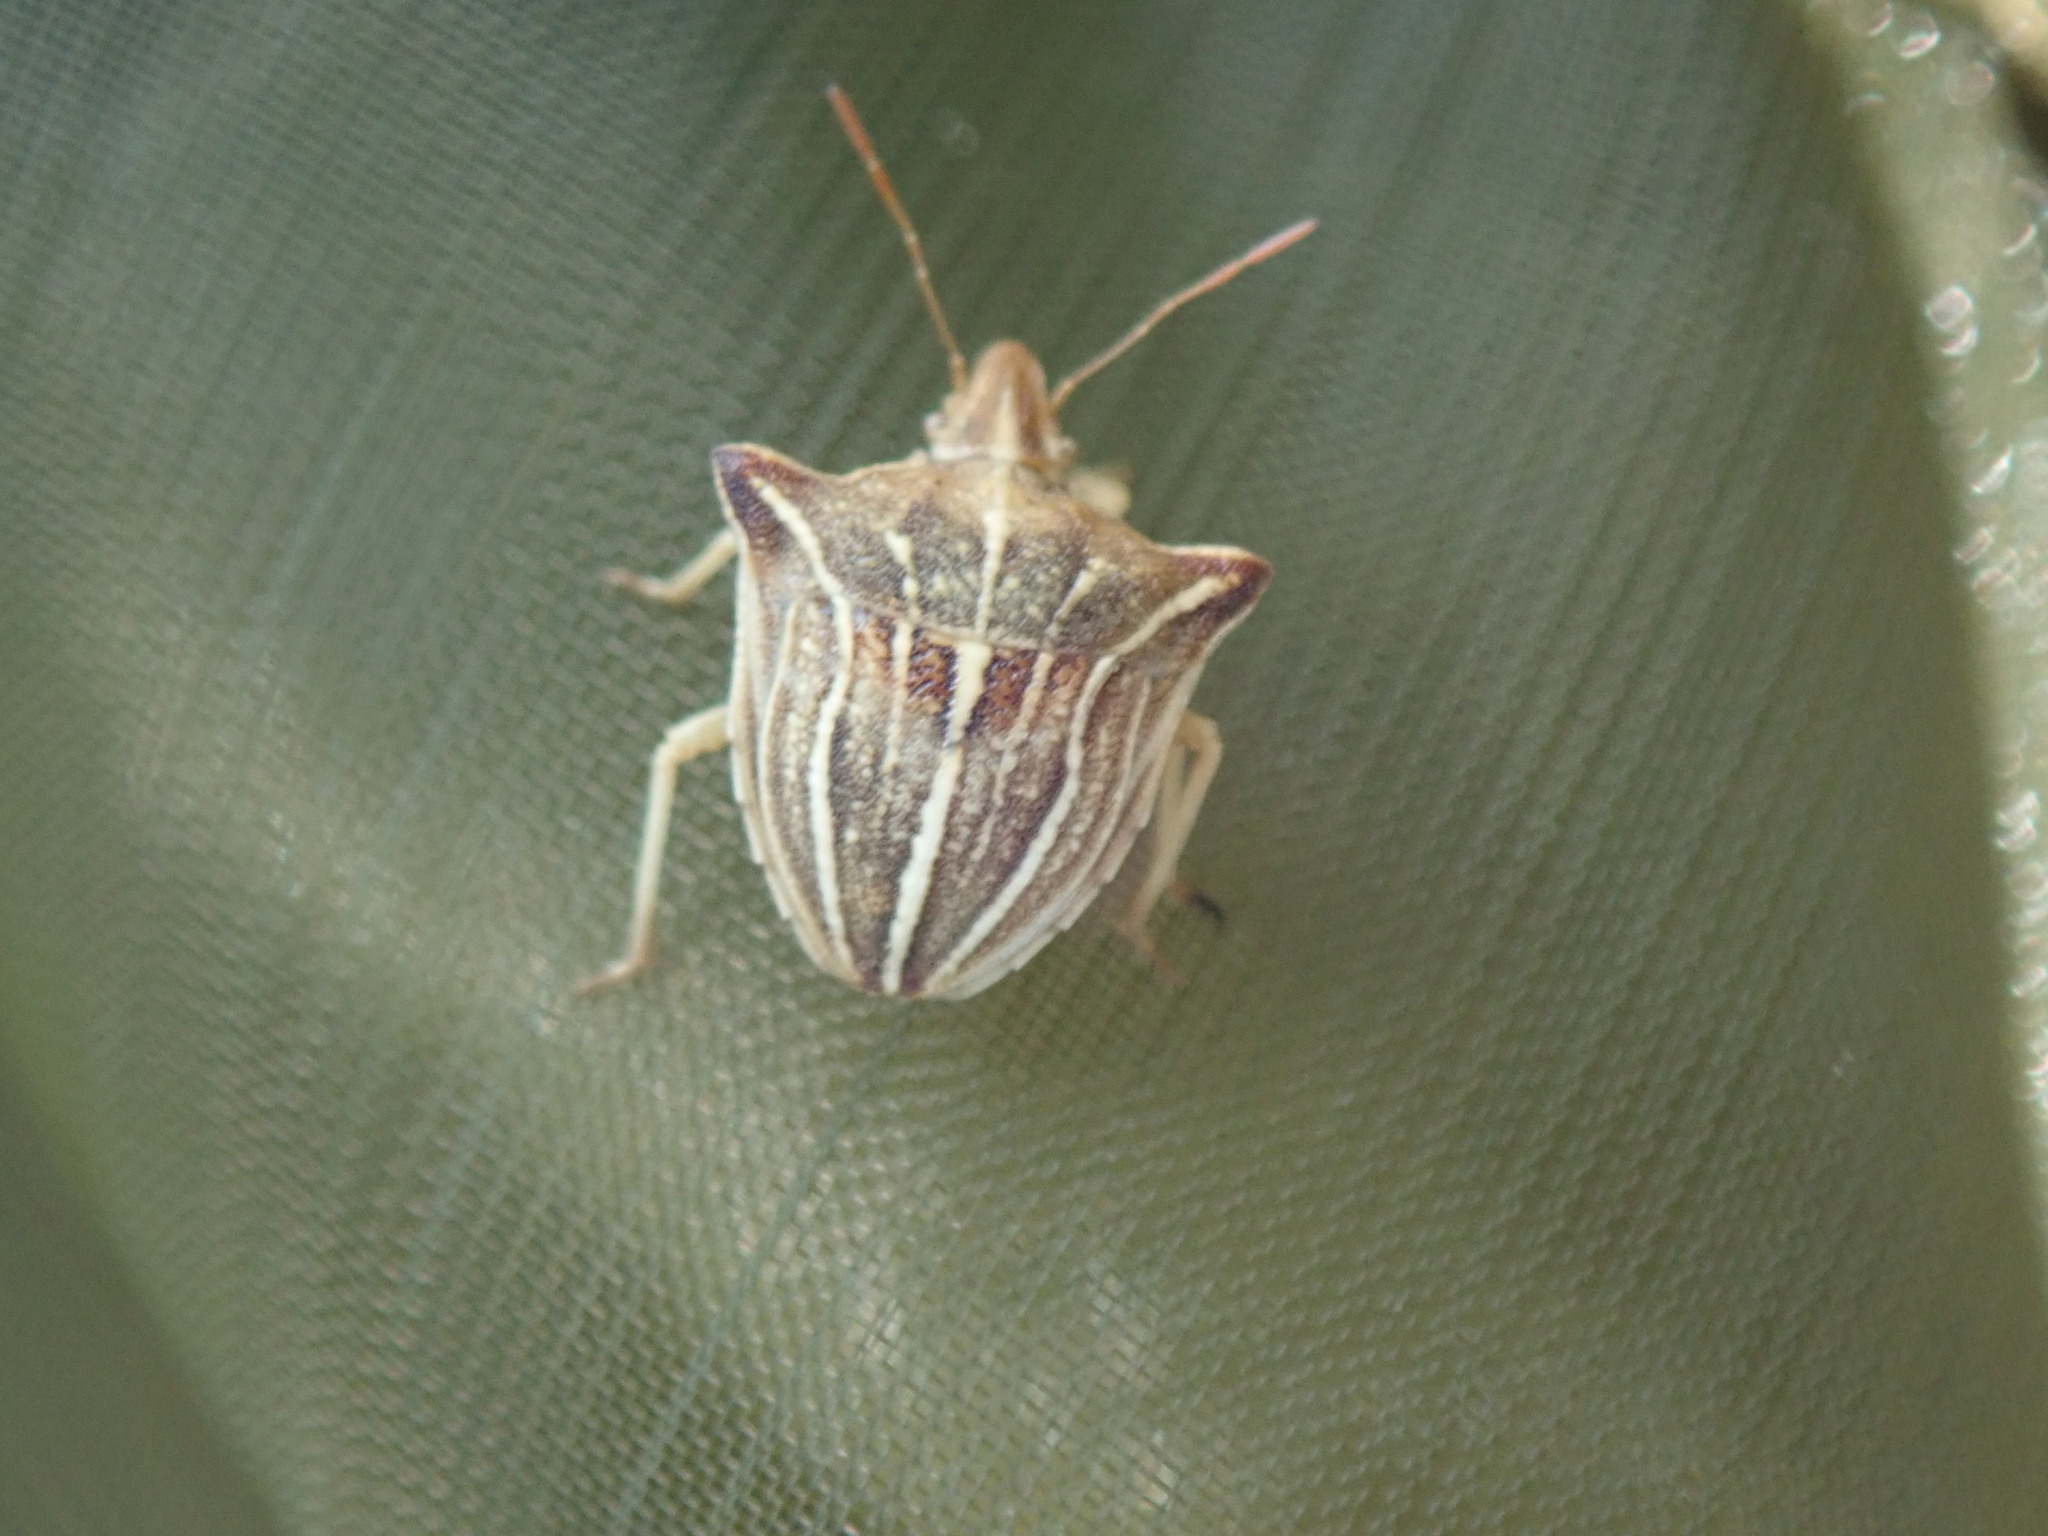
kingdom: Animalia
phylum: Arthropoda
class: Insecta
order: Hemiptera
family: Pentatomidae
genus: Ancyrosoma
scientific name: Ancyrosoma leucogrammes
